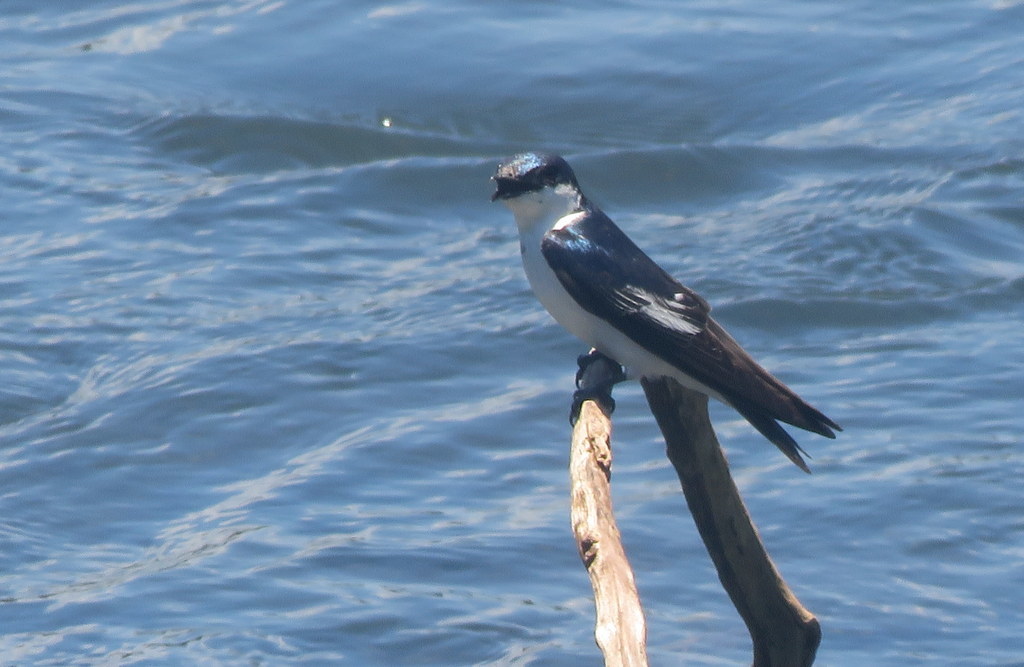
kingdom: Animalia
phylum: Chordata
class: Aves
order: Passeriformes
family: Hirundinidae
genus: Tachycineta
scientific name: Tachycineta albiventer
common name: White-winged swallow
